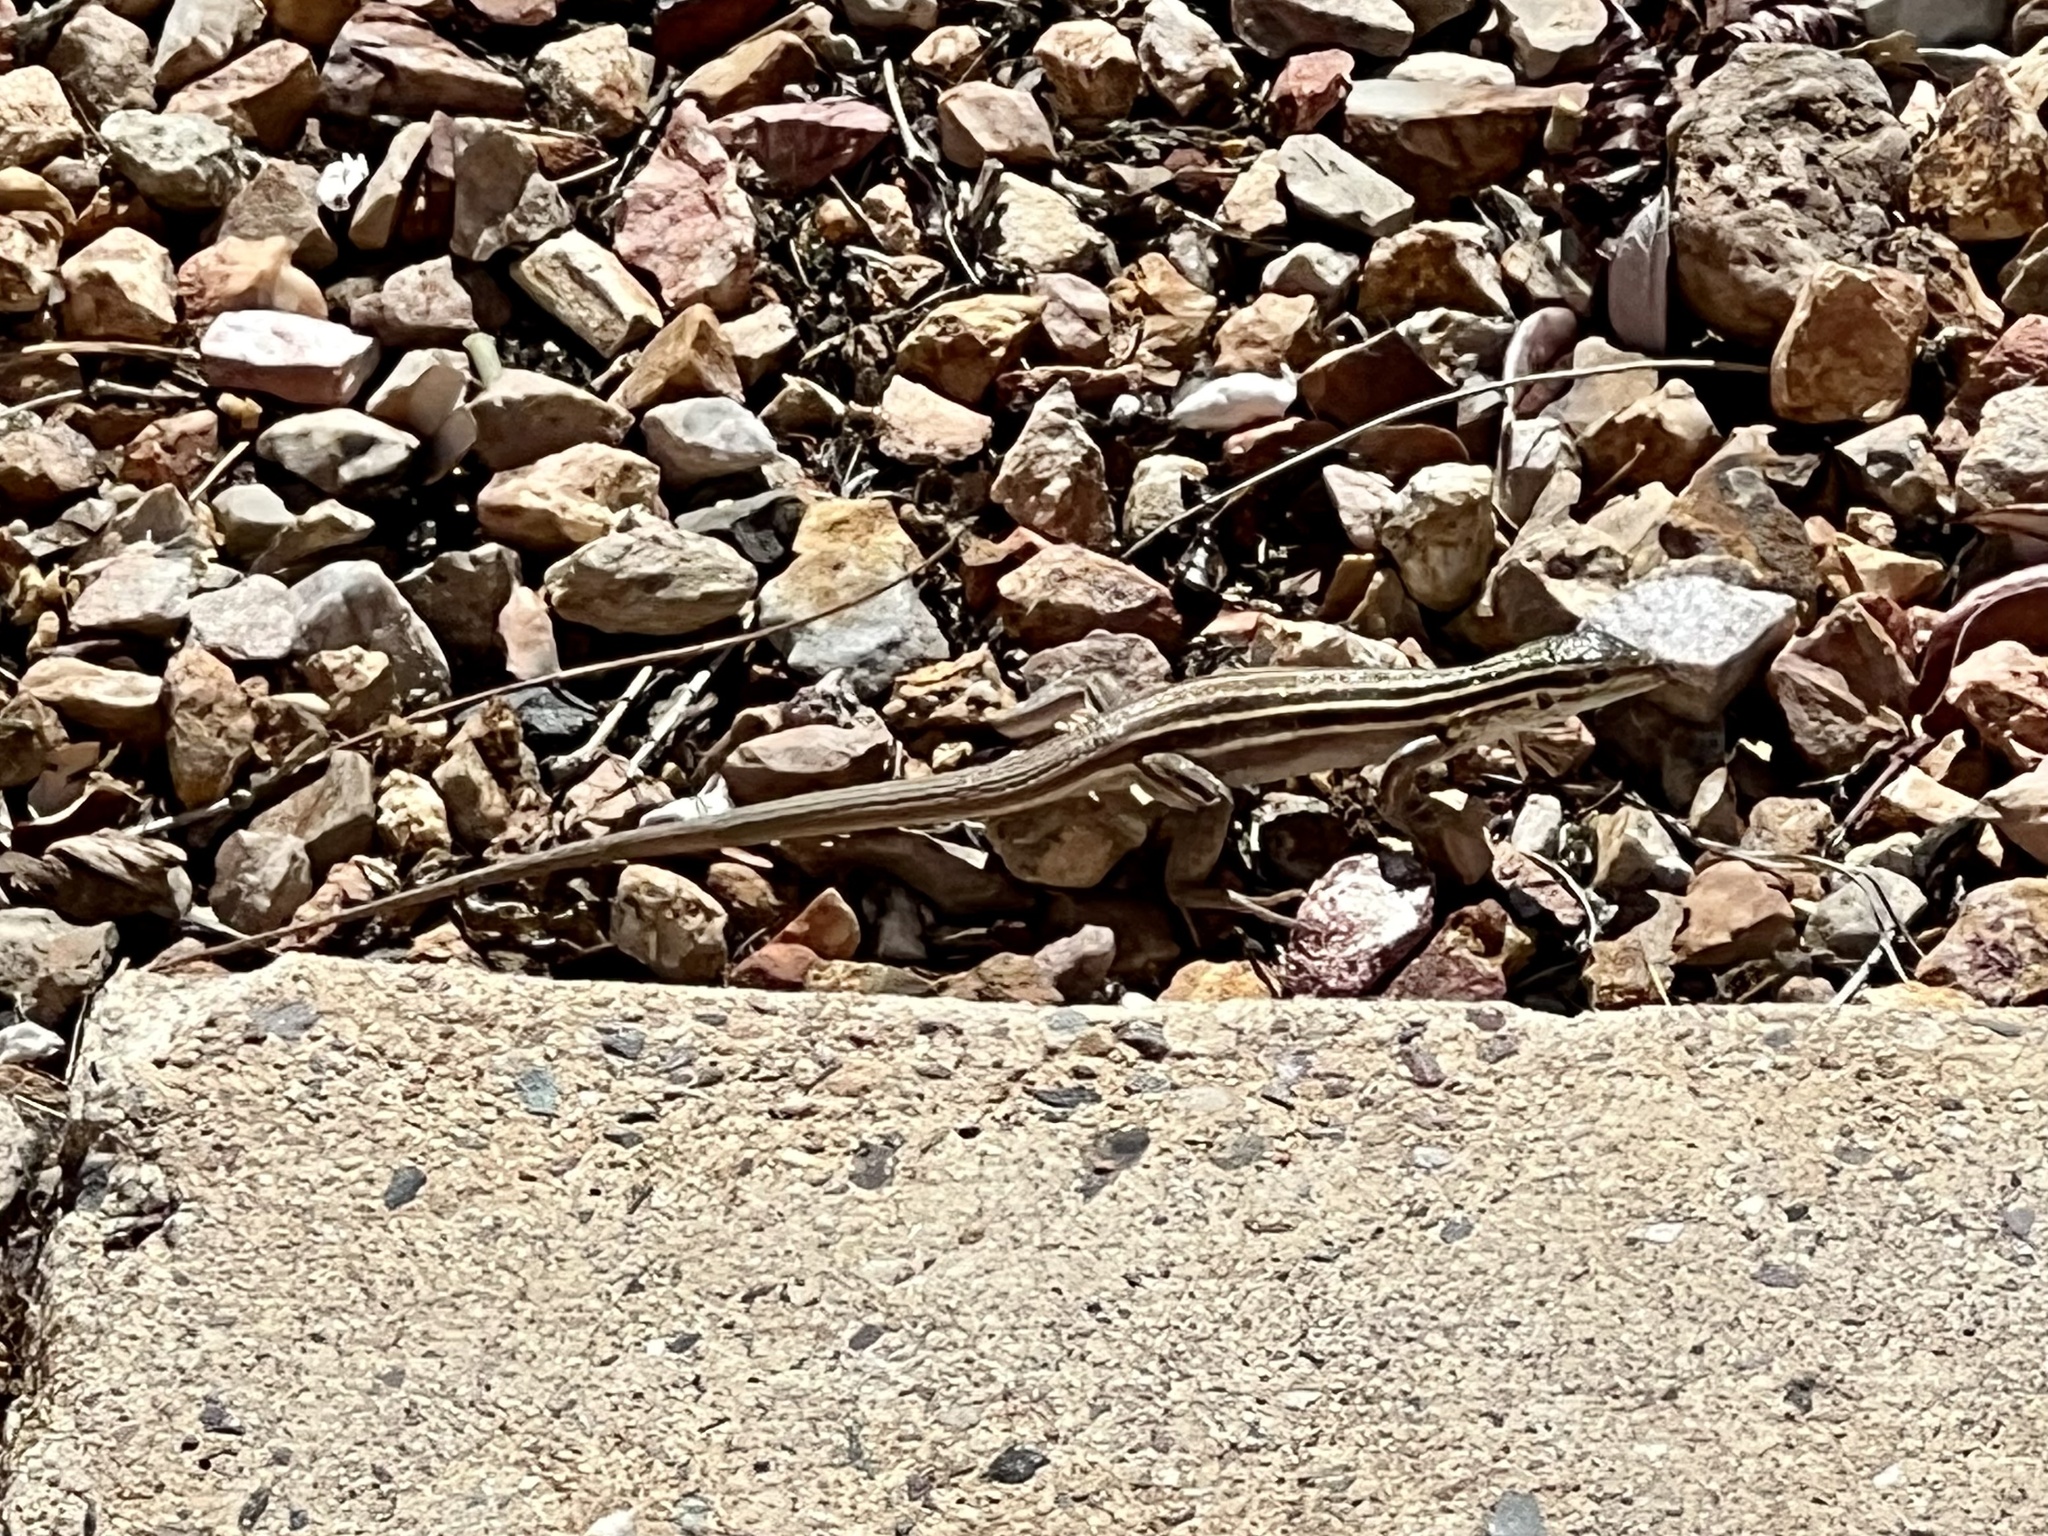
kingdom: Animalia
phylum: Chordata
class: Squamata
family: Teiidae
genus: Aspidoscelis
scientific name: Aspidoscelis uniparens
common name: Desert grassland whiptail
